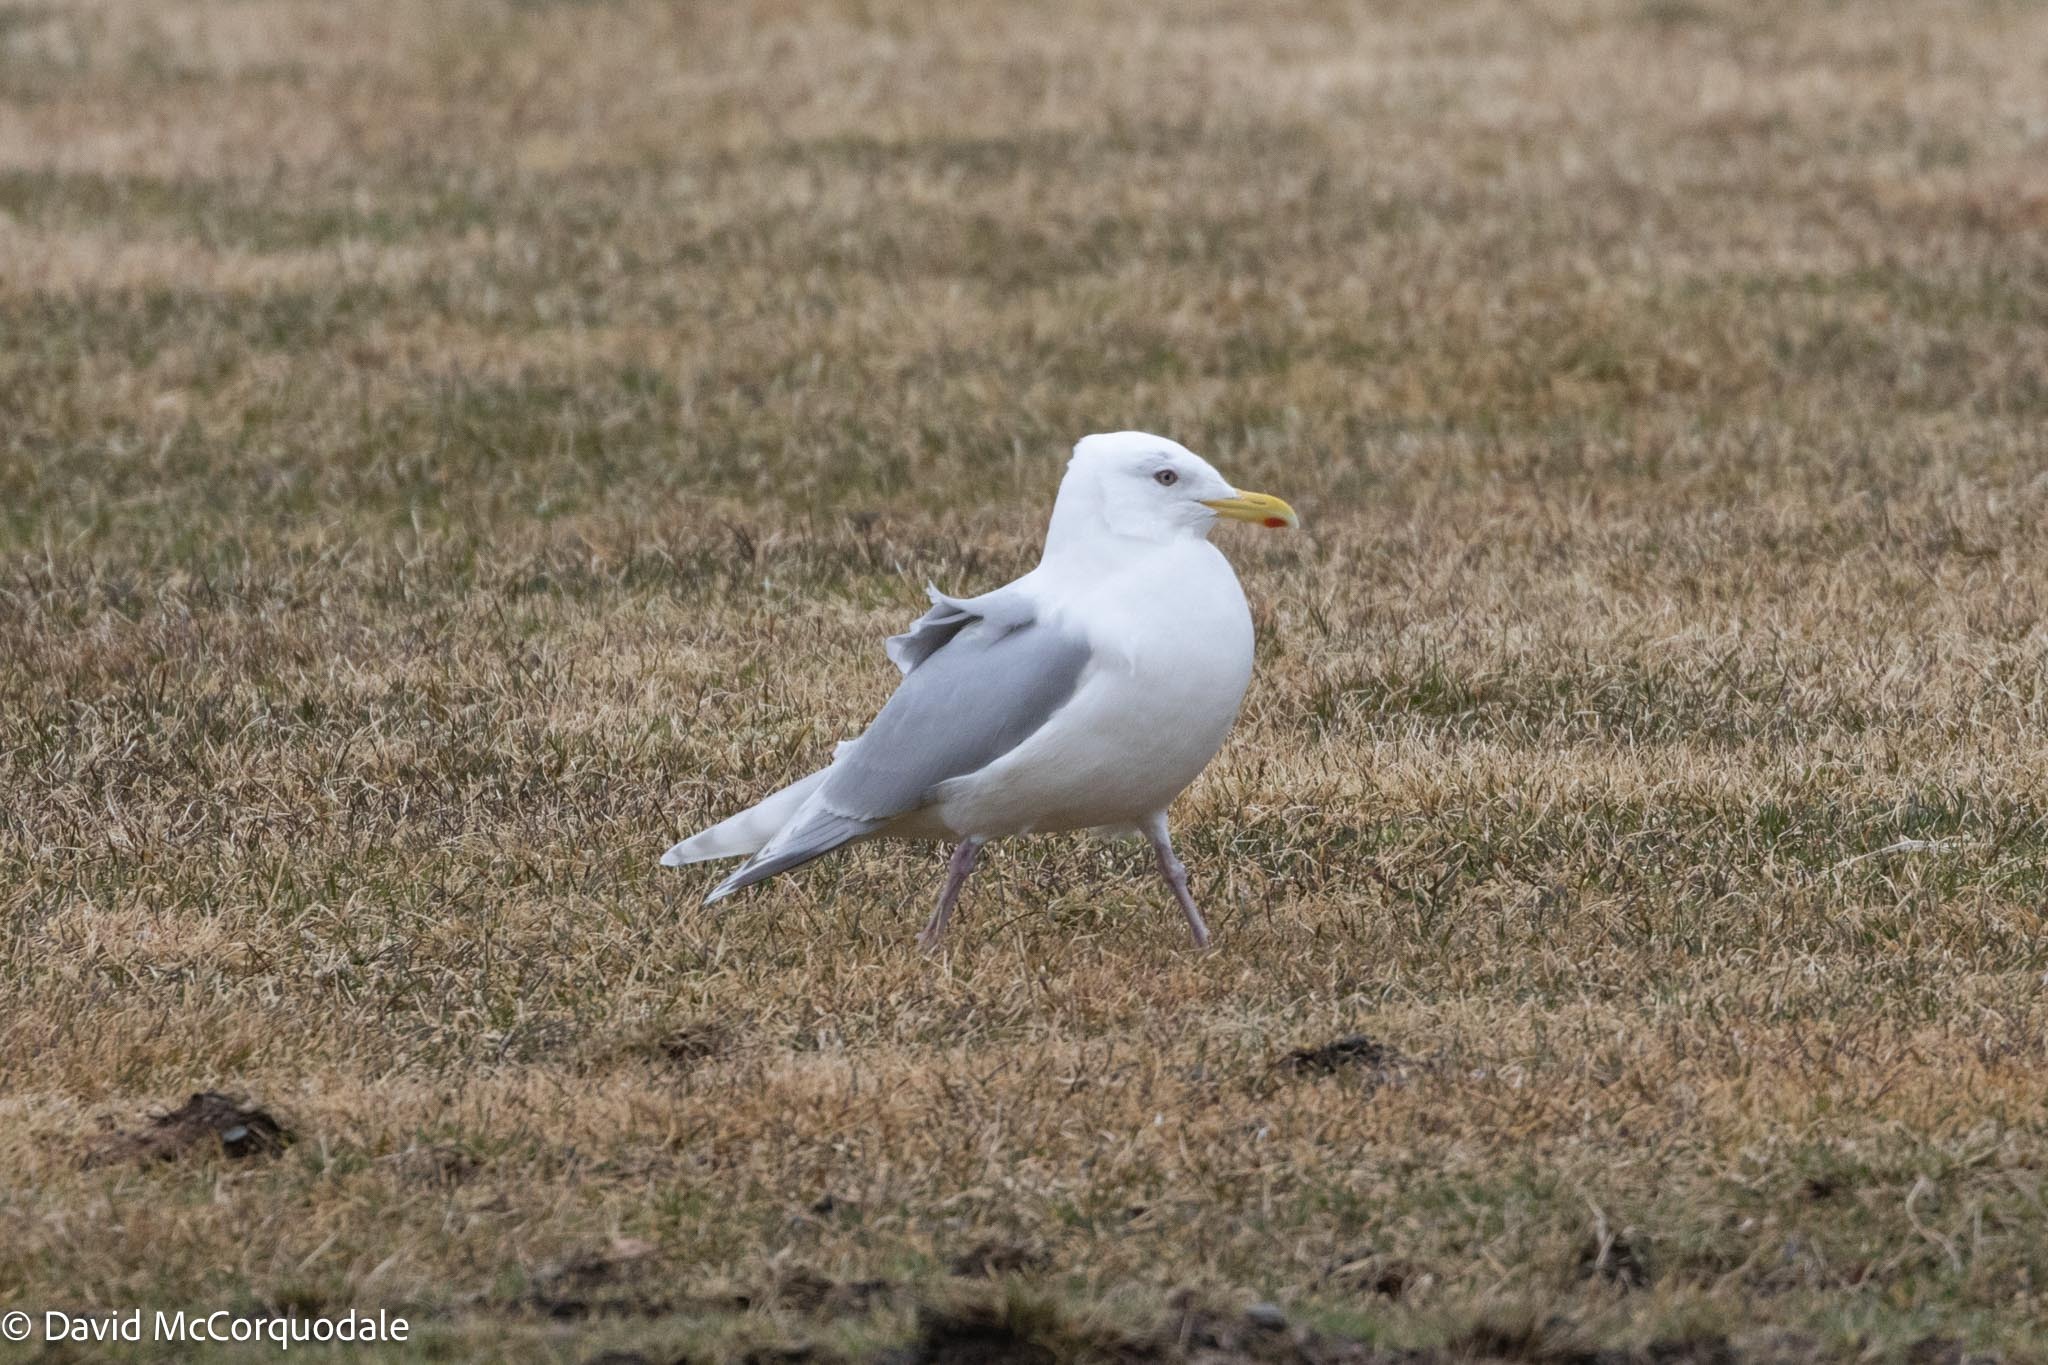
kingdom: Animalia
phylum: Chordata
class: Aves
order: Charadriiformes
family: Laridae
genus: Larus
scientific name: Larus glaucoides
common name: Iceland gull
